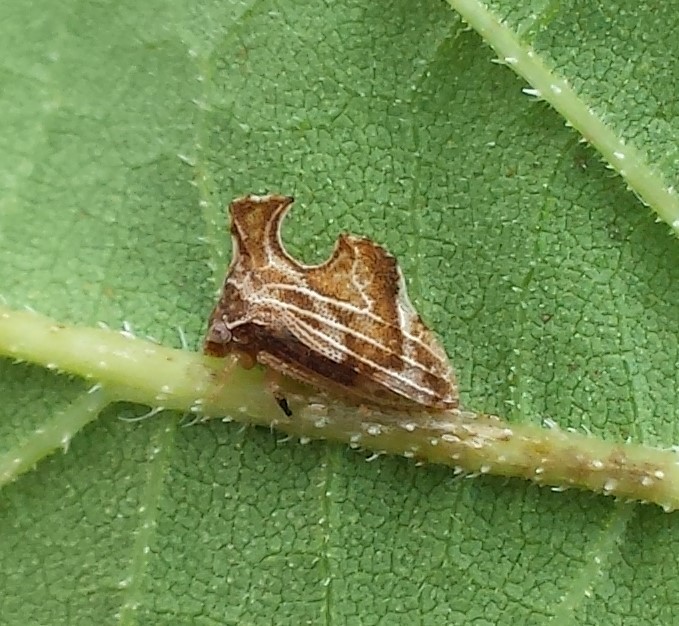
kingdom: Animalia
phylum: Arthropoda
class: Insecta
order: Hemiptera
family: Membracidae
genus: Entylia
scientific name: Entylia carinata
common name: Keeled treehopper
